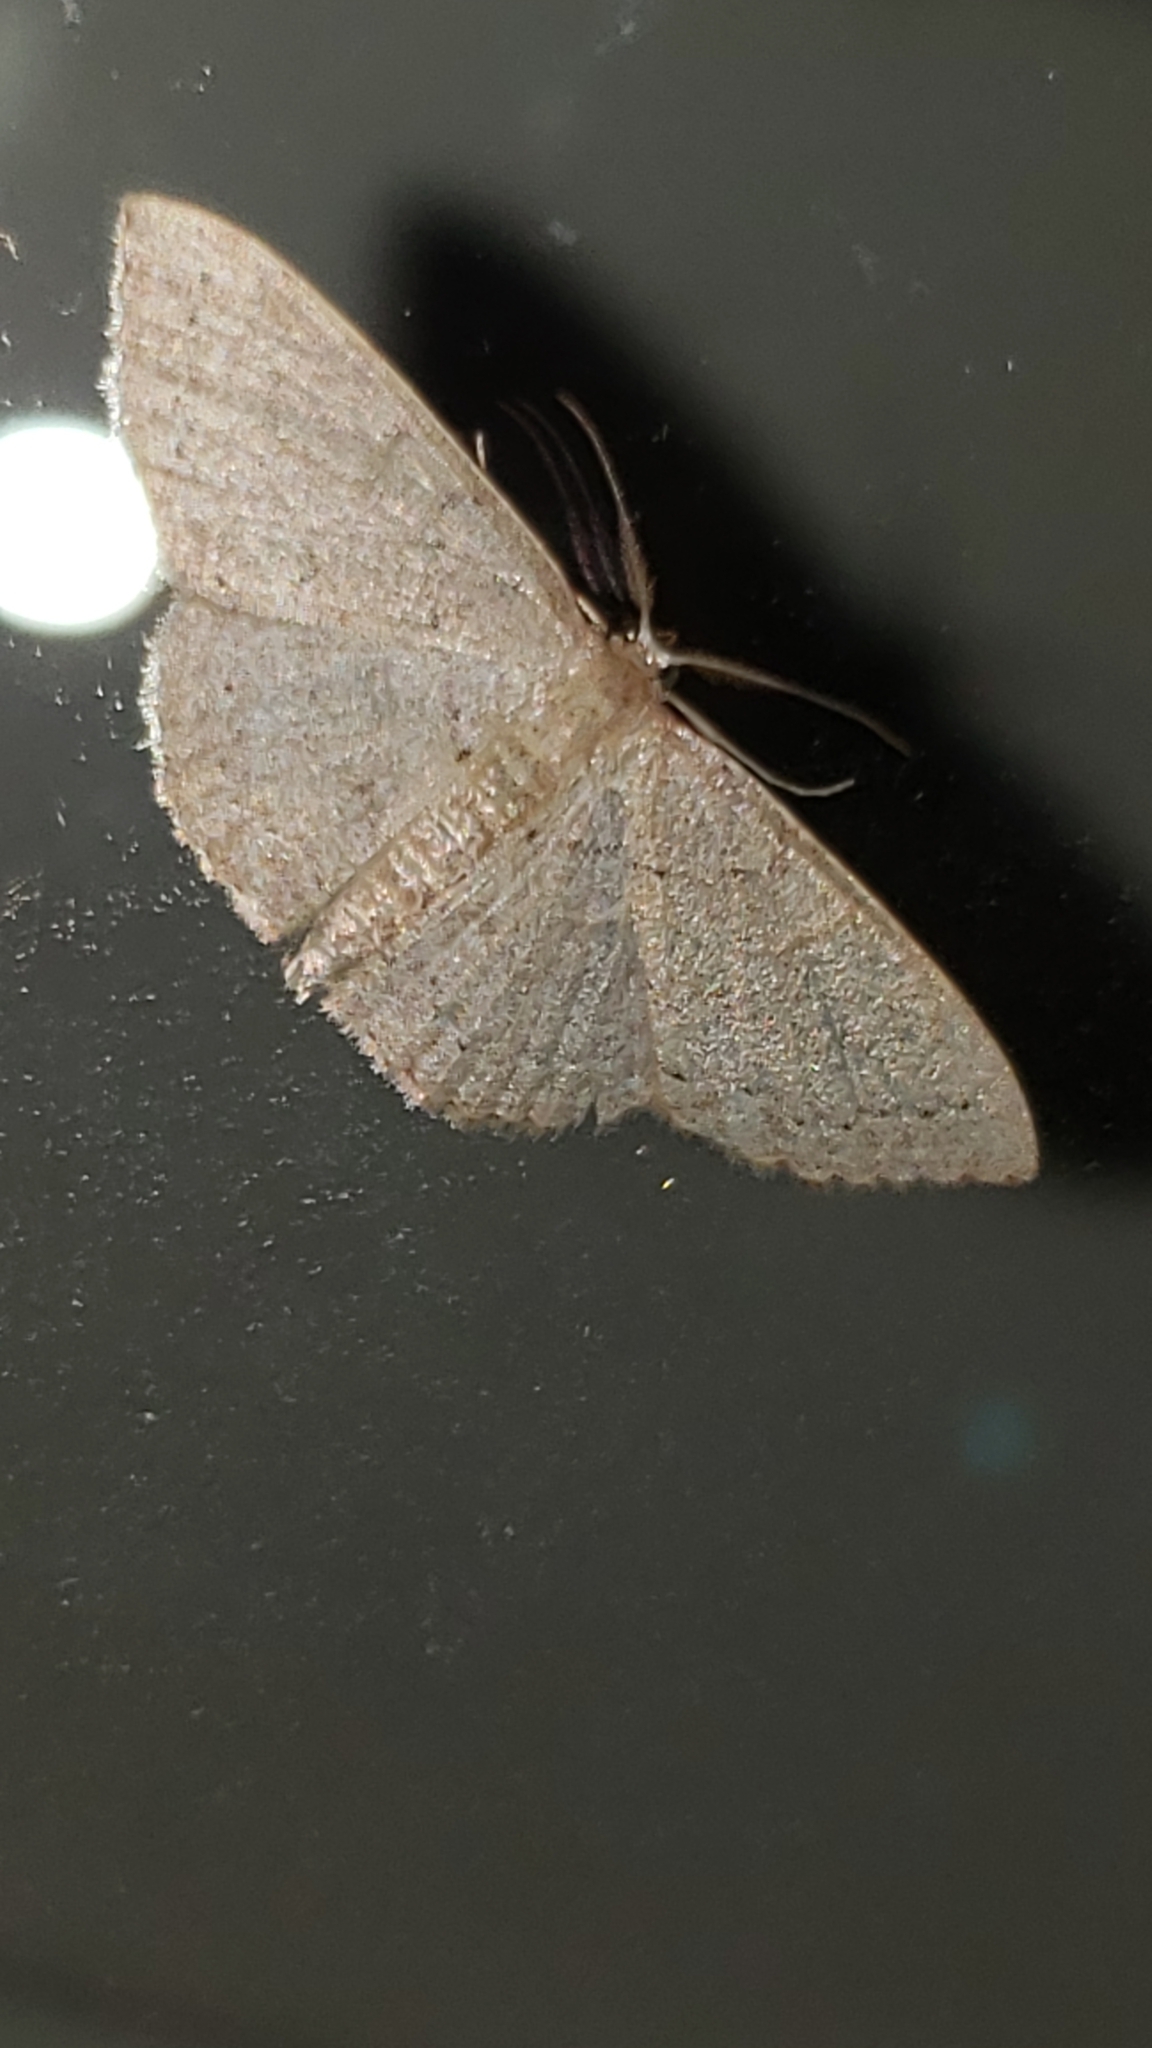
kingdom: Animalia
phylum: Arthropoda
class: Insecta
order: Lepidoptera
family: Geometridae
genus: Pleuroprucha
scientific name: Pleuroprucha insulsaria
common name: Common tan wave
